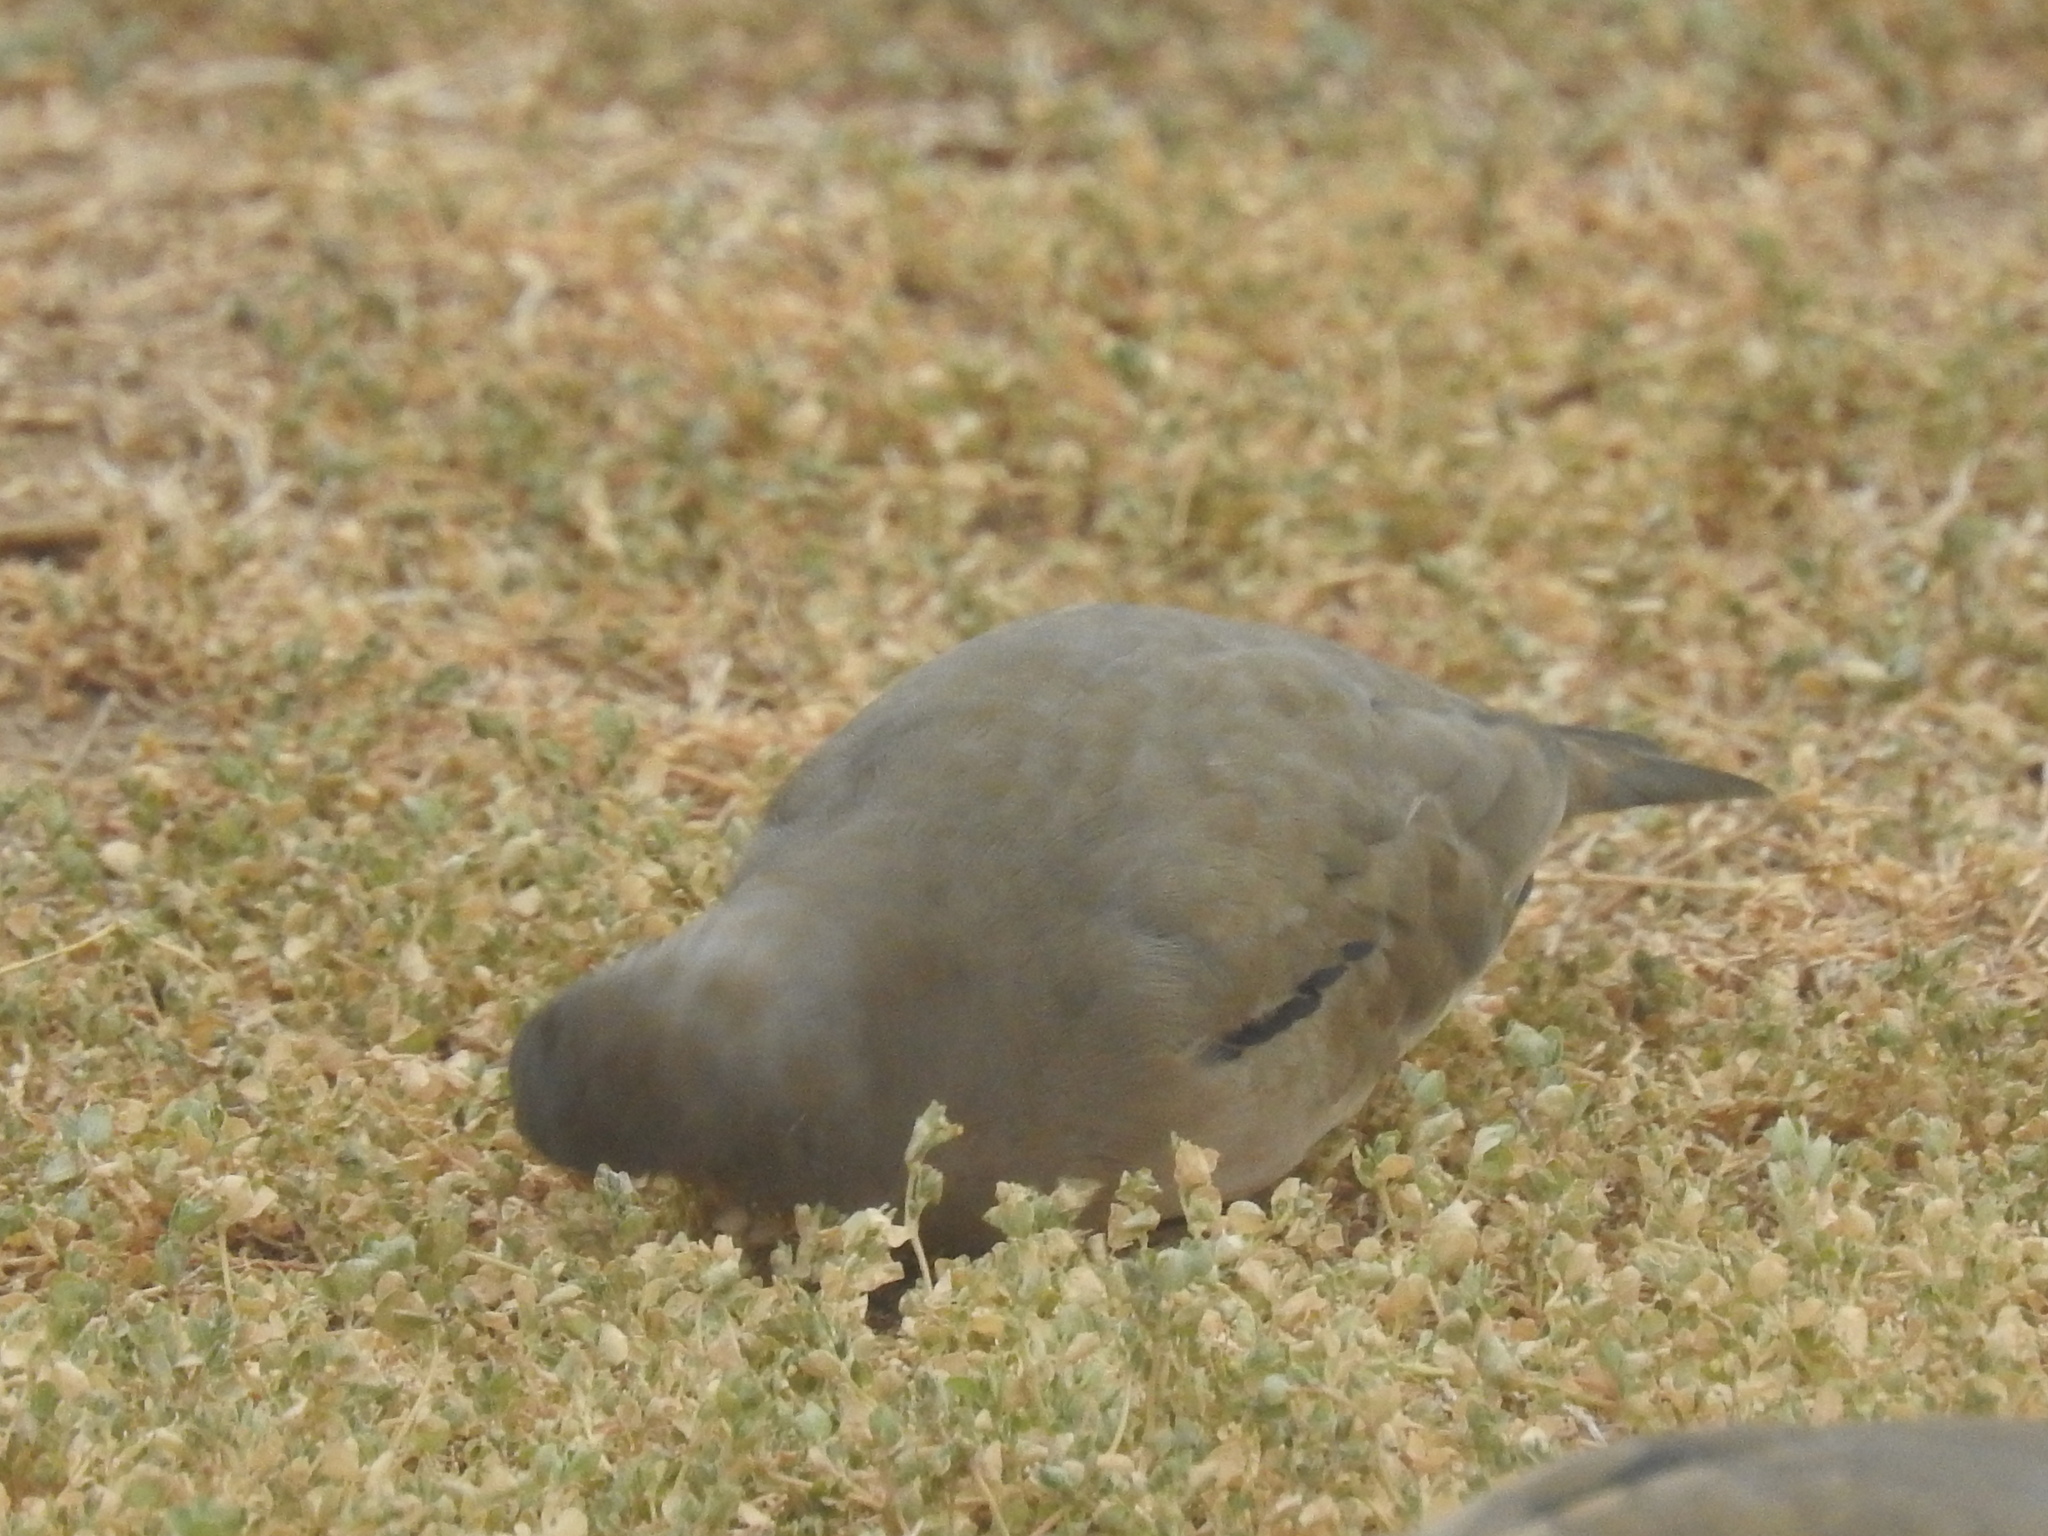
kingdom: Animalia
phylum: Chordata
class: Aves
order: Columbiformes
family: Columbidae
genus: Columbina
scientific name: Columbina picui
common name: Picui ground dove
